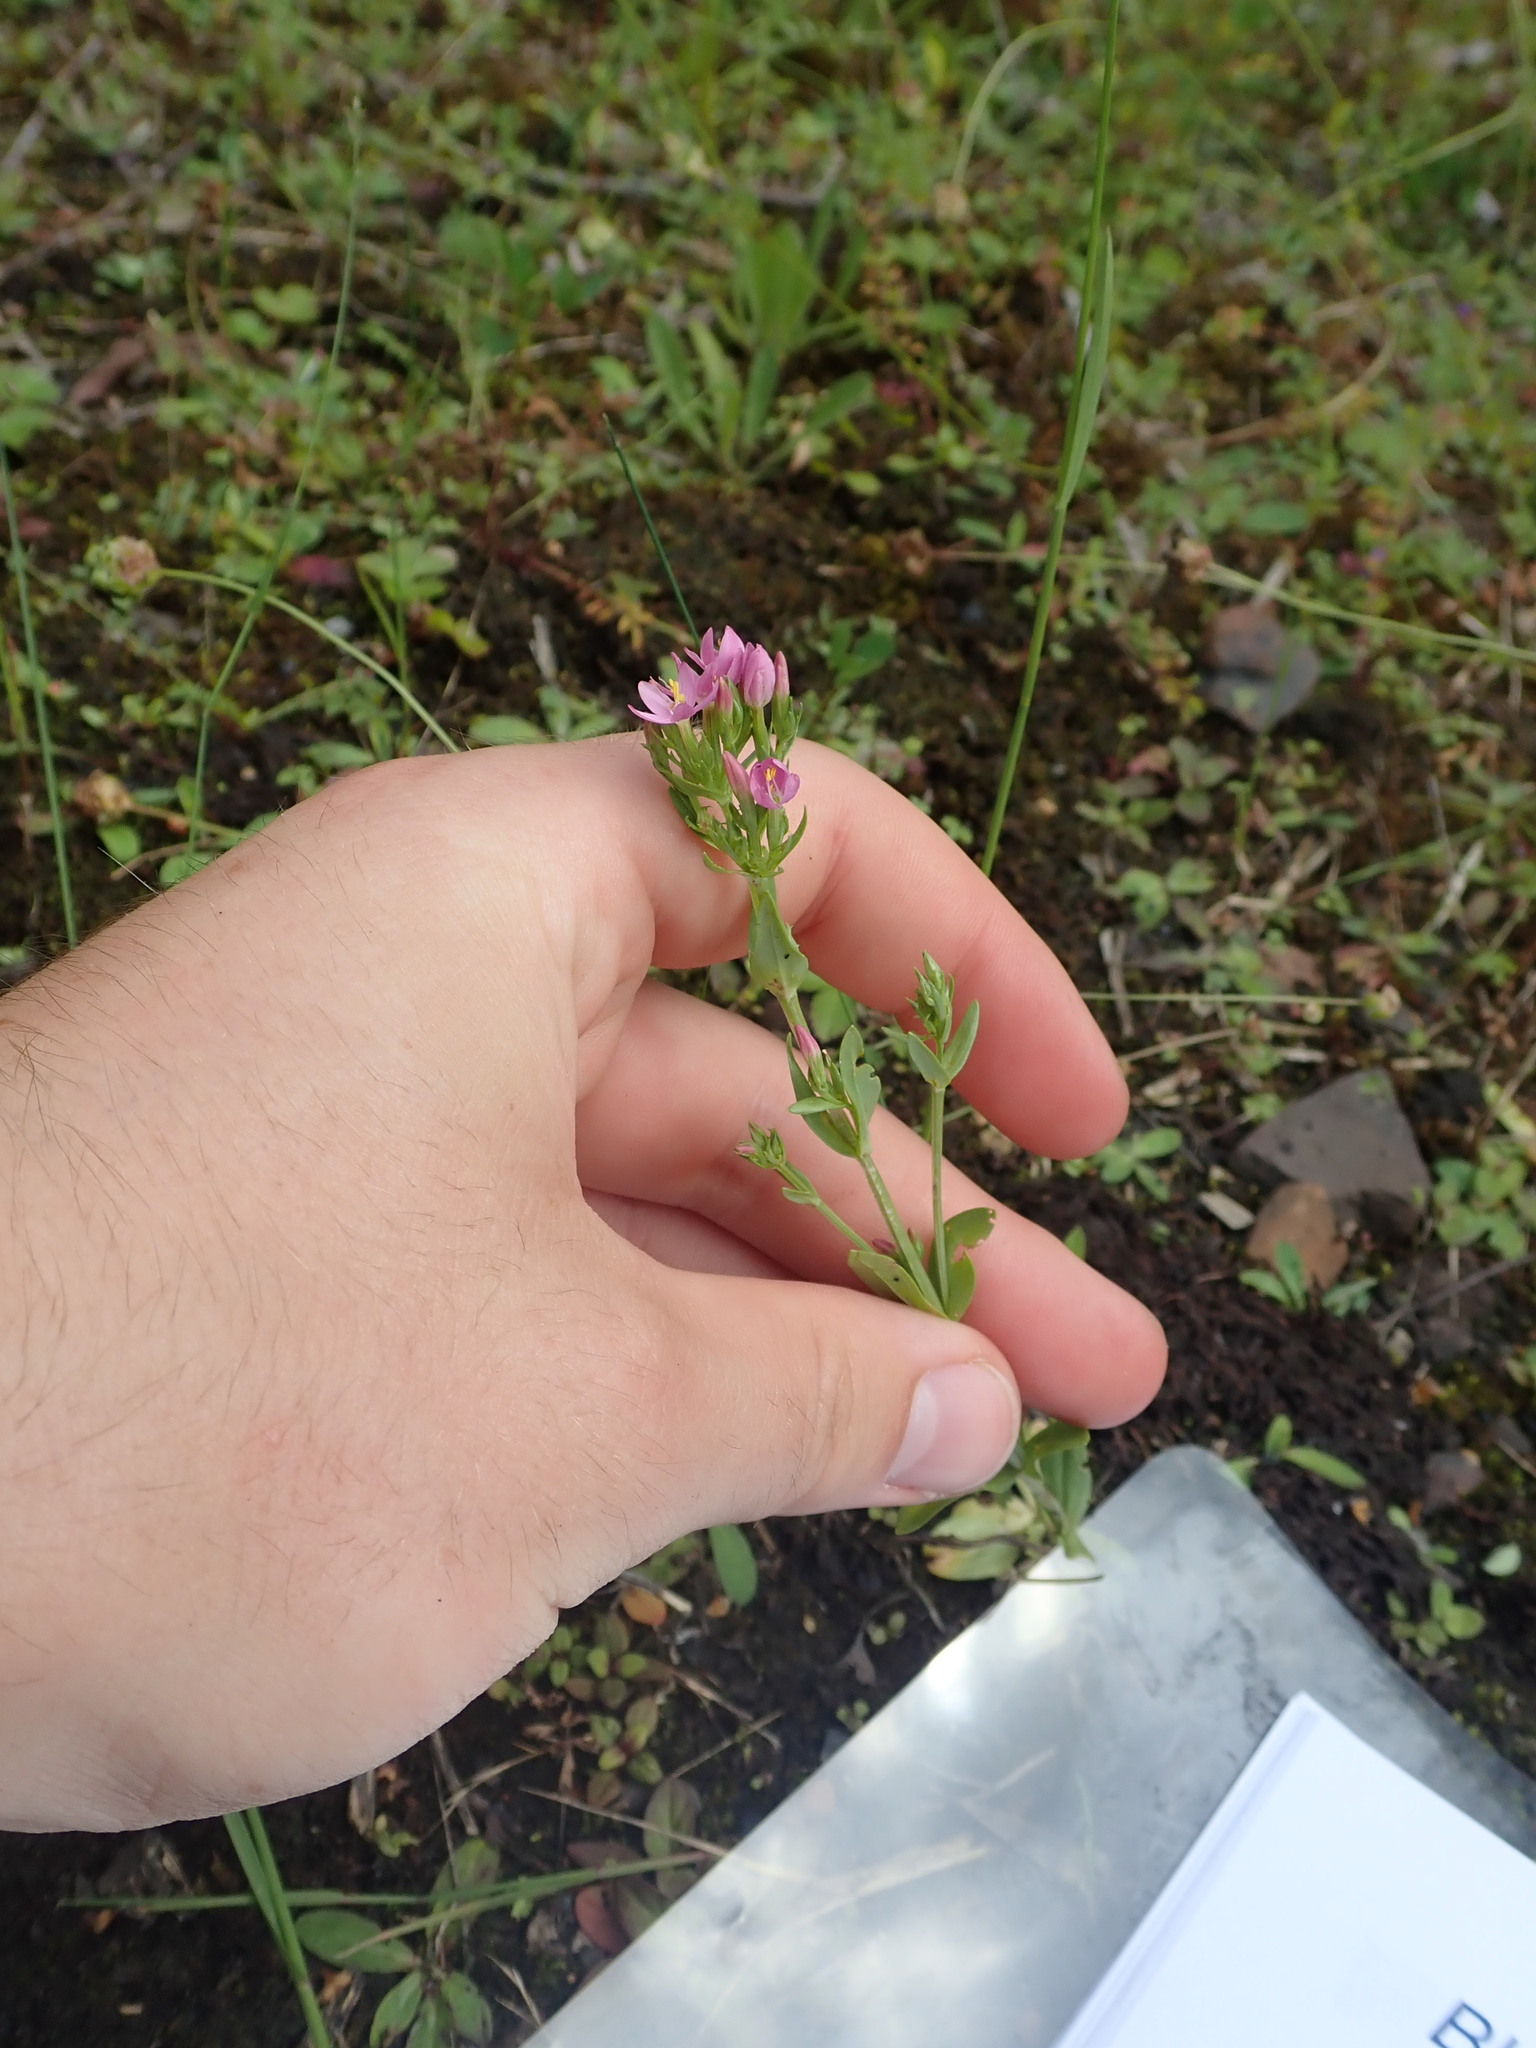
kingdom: Plantae
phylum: Tracheophyta
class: Magnoliopsida
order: Gentianales
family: Gentianaceae
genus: Centaurium
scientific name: Centaurium erythraea
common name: Common centaury
